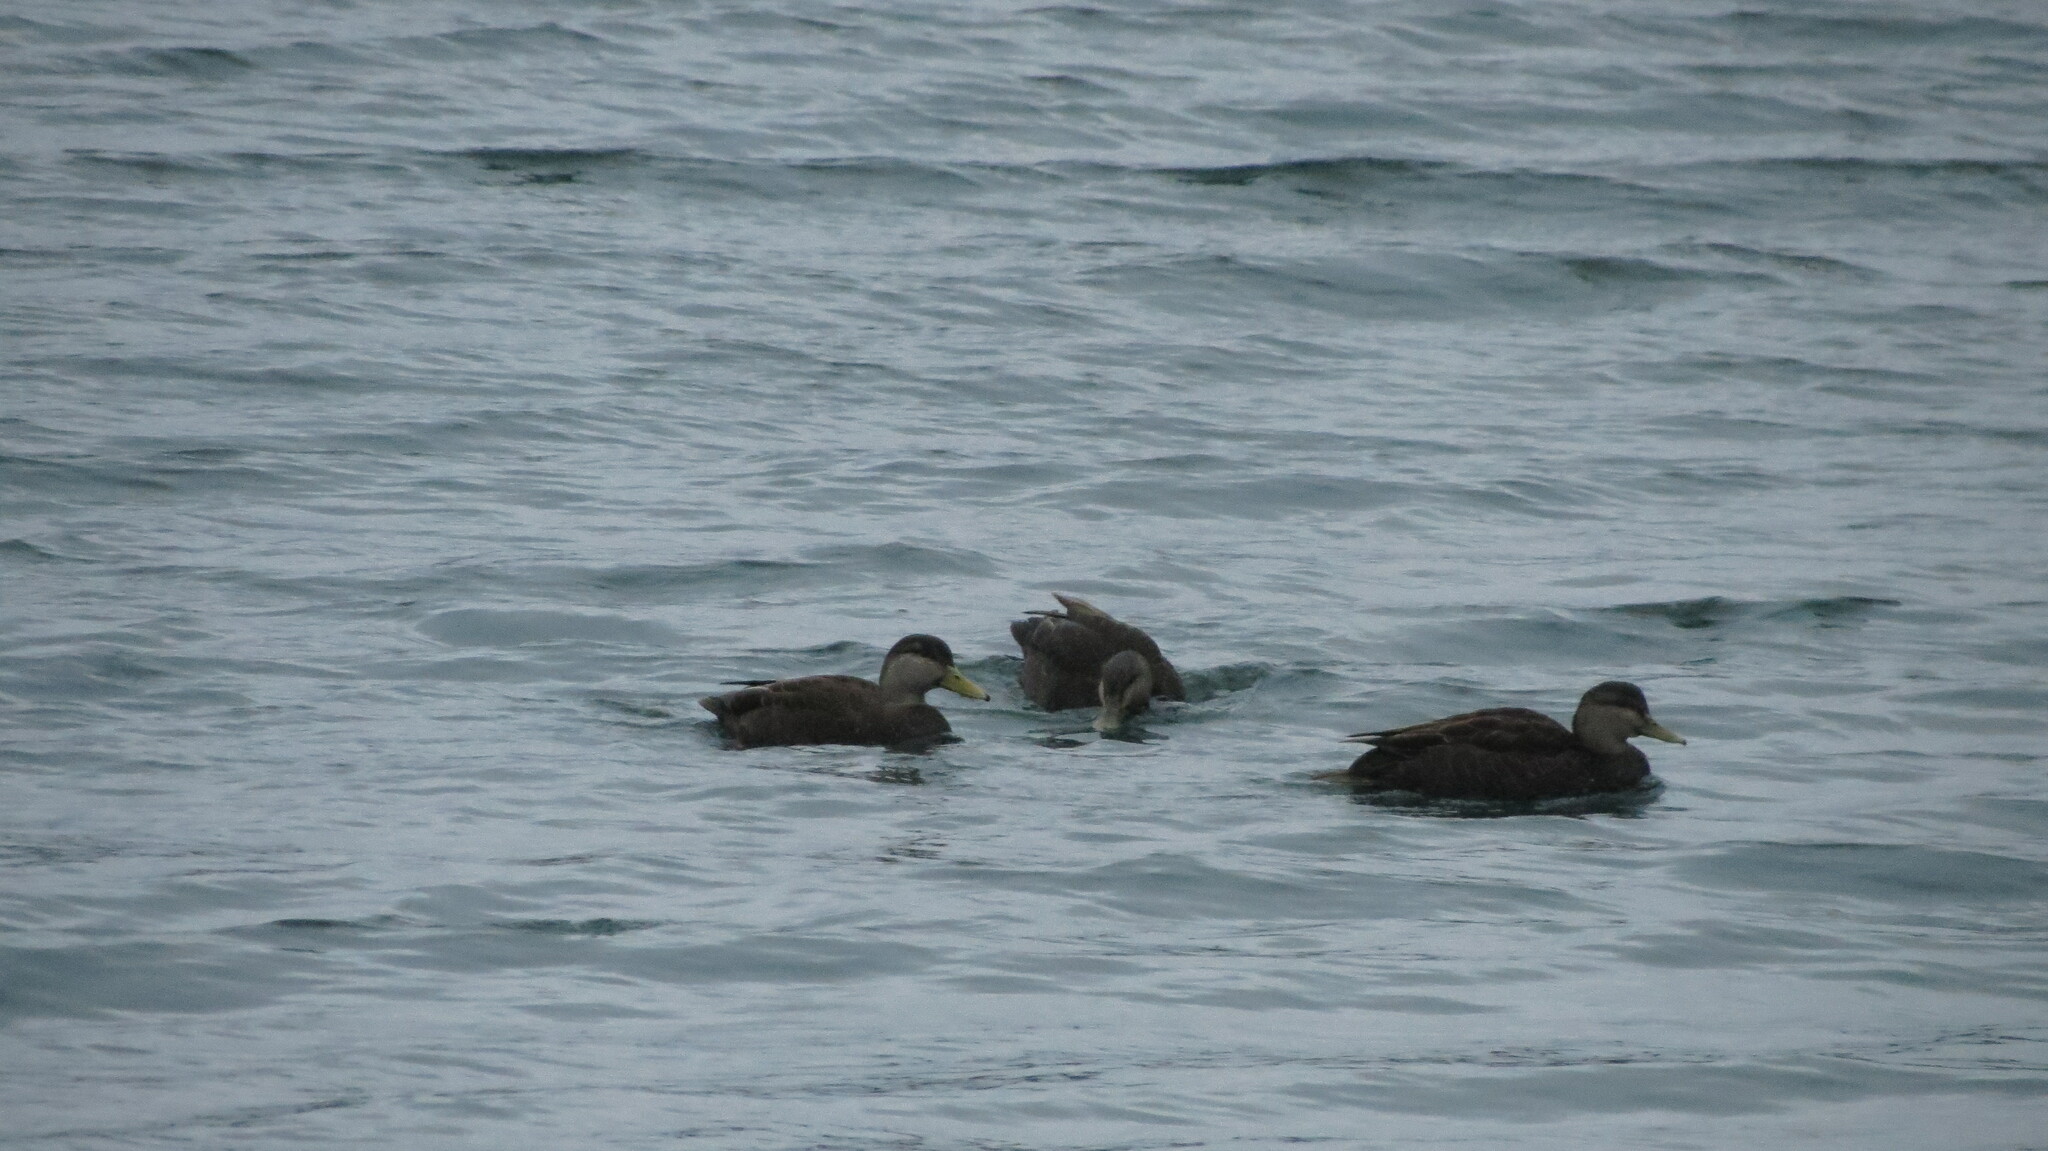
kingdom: Animalia
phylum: Chordata
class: Aves
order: Anseriformes
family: Anatidae
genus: Anas
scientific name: Anas rubripes
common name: American black duck
